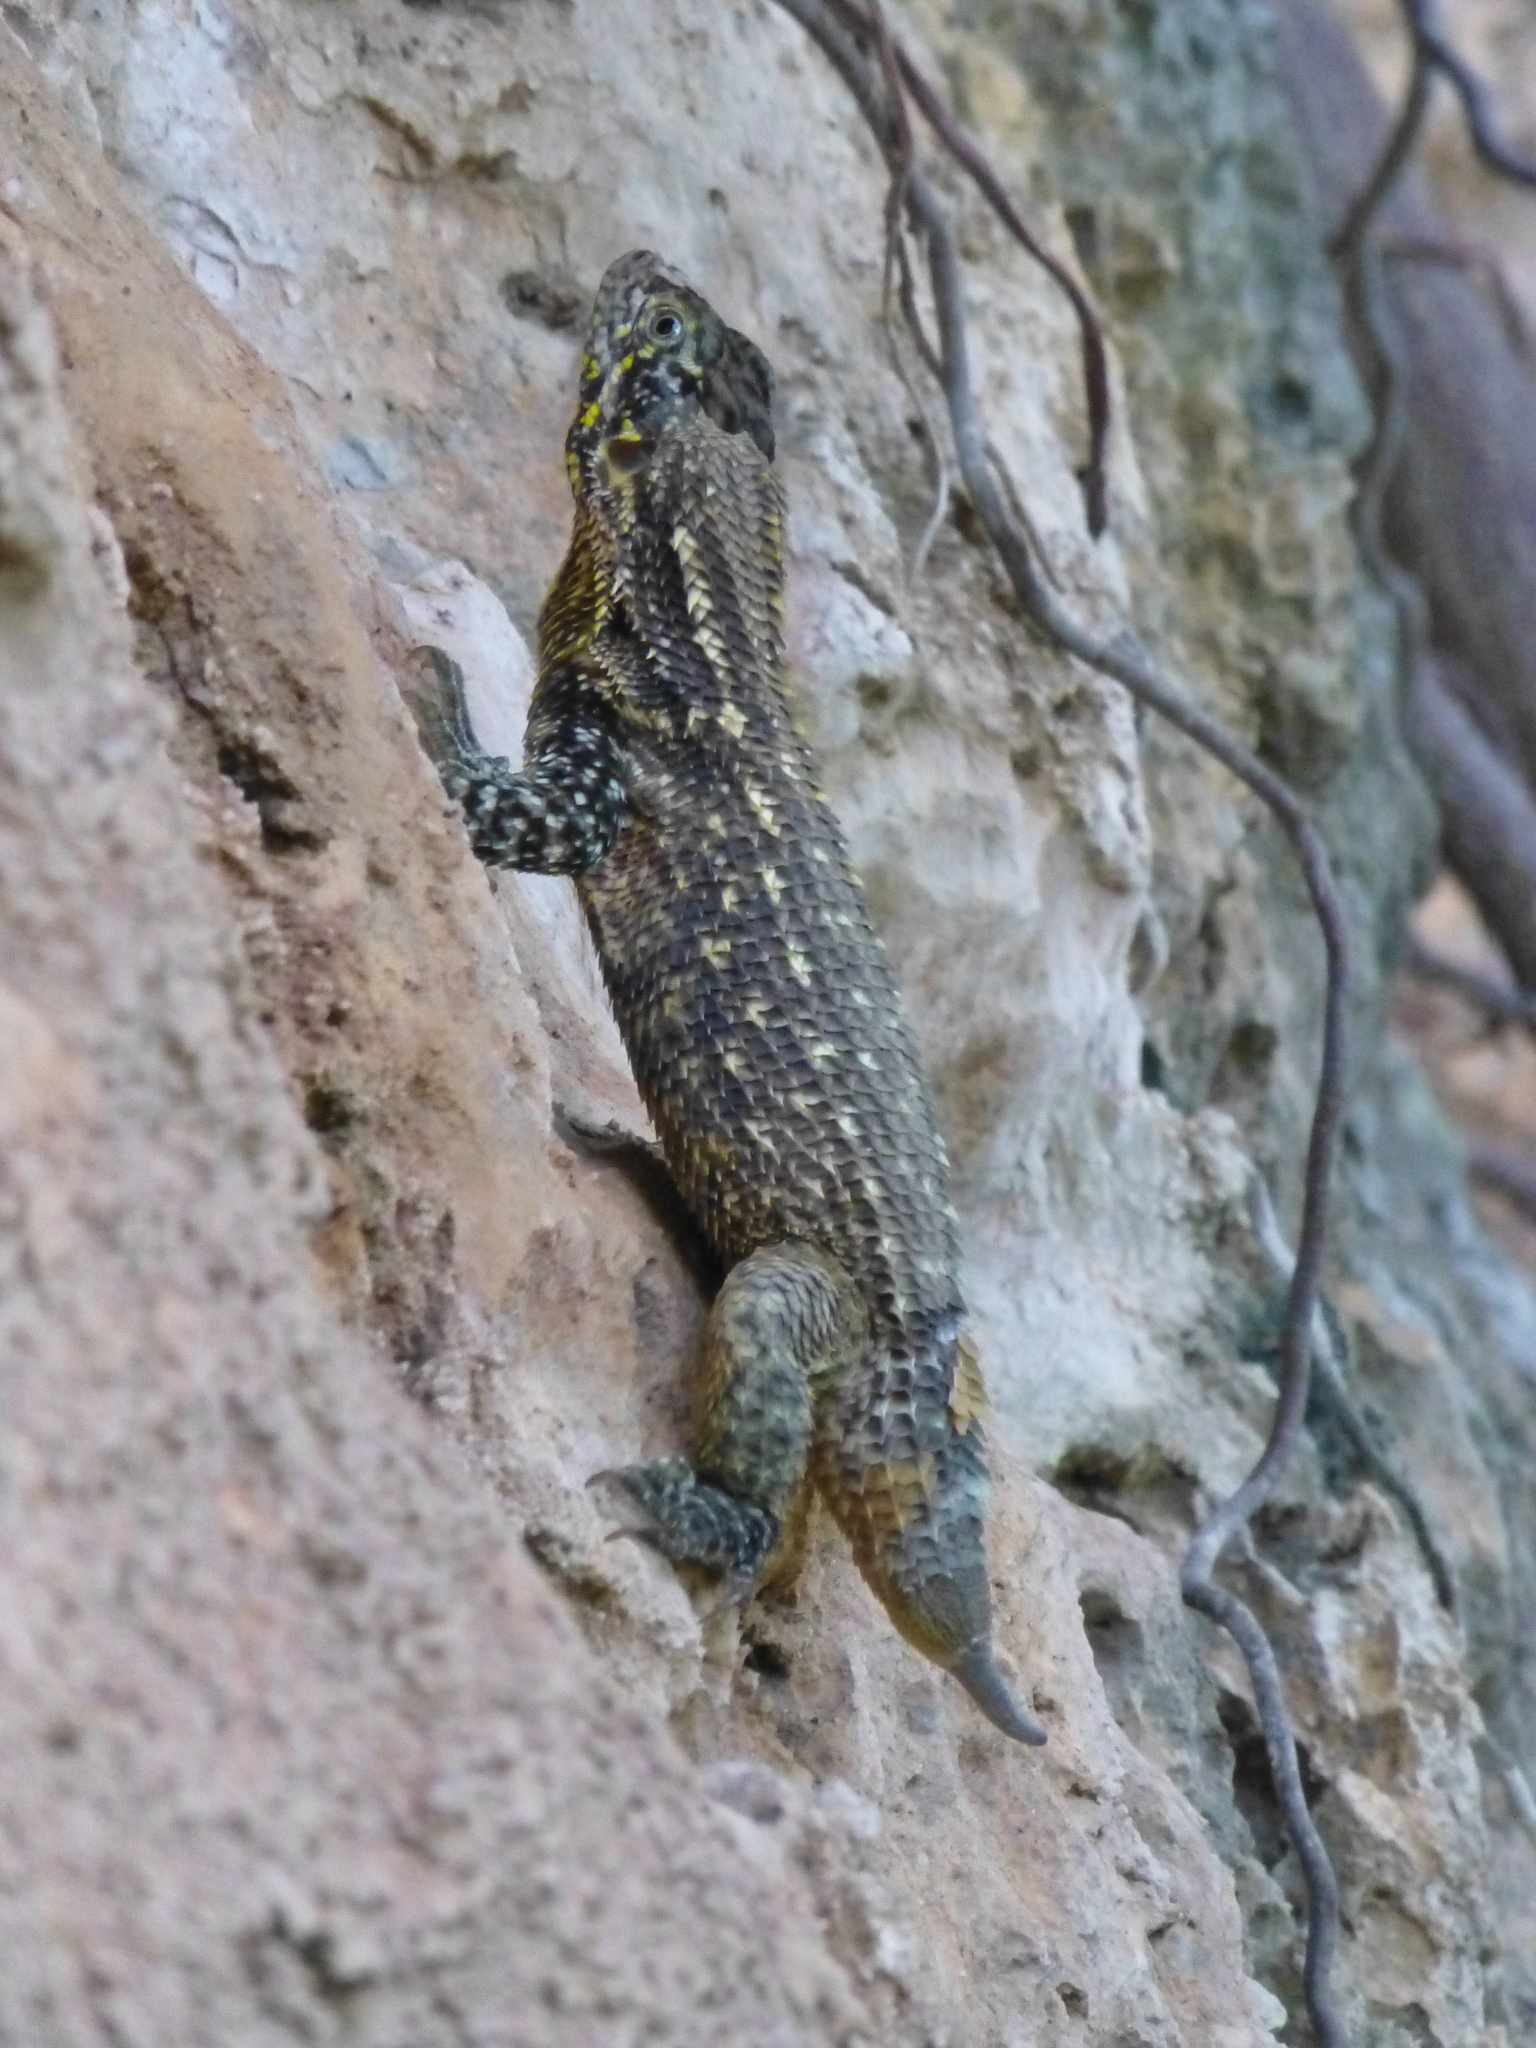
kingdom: Animalia
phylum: Chordata
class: Squamata
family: Leiocephalidae
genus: Leiocephalus
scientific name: Leiocephalus carinatus
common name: Northern curly-tailed lizard
